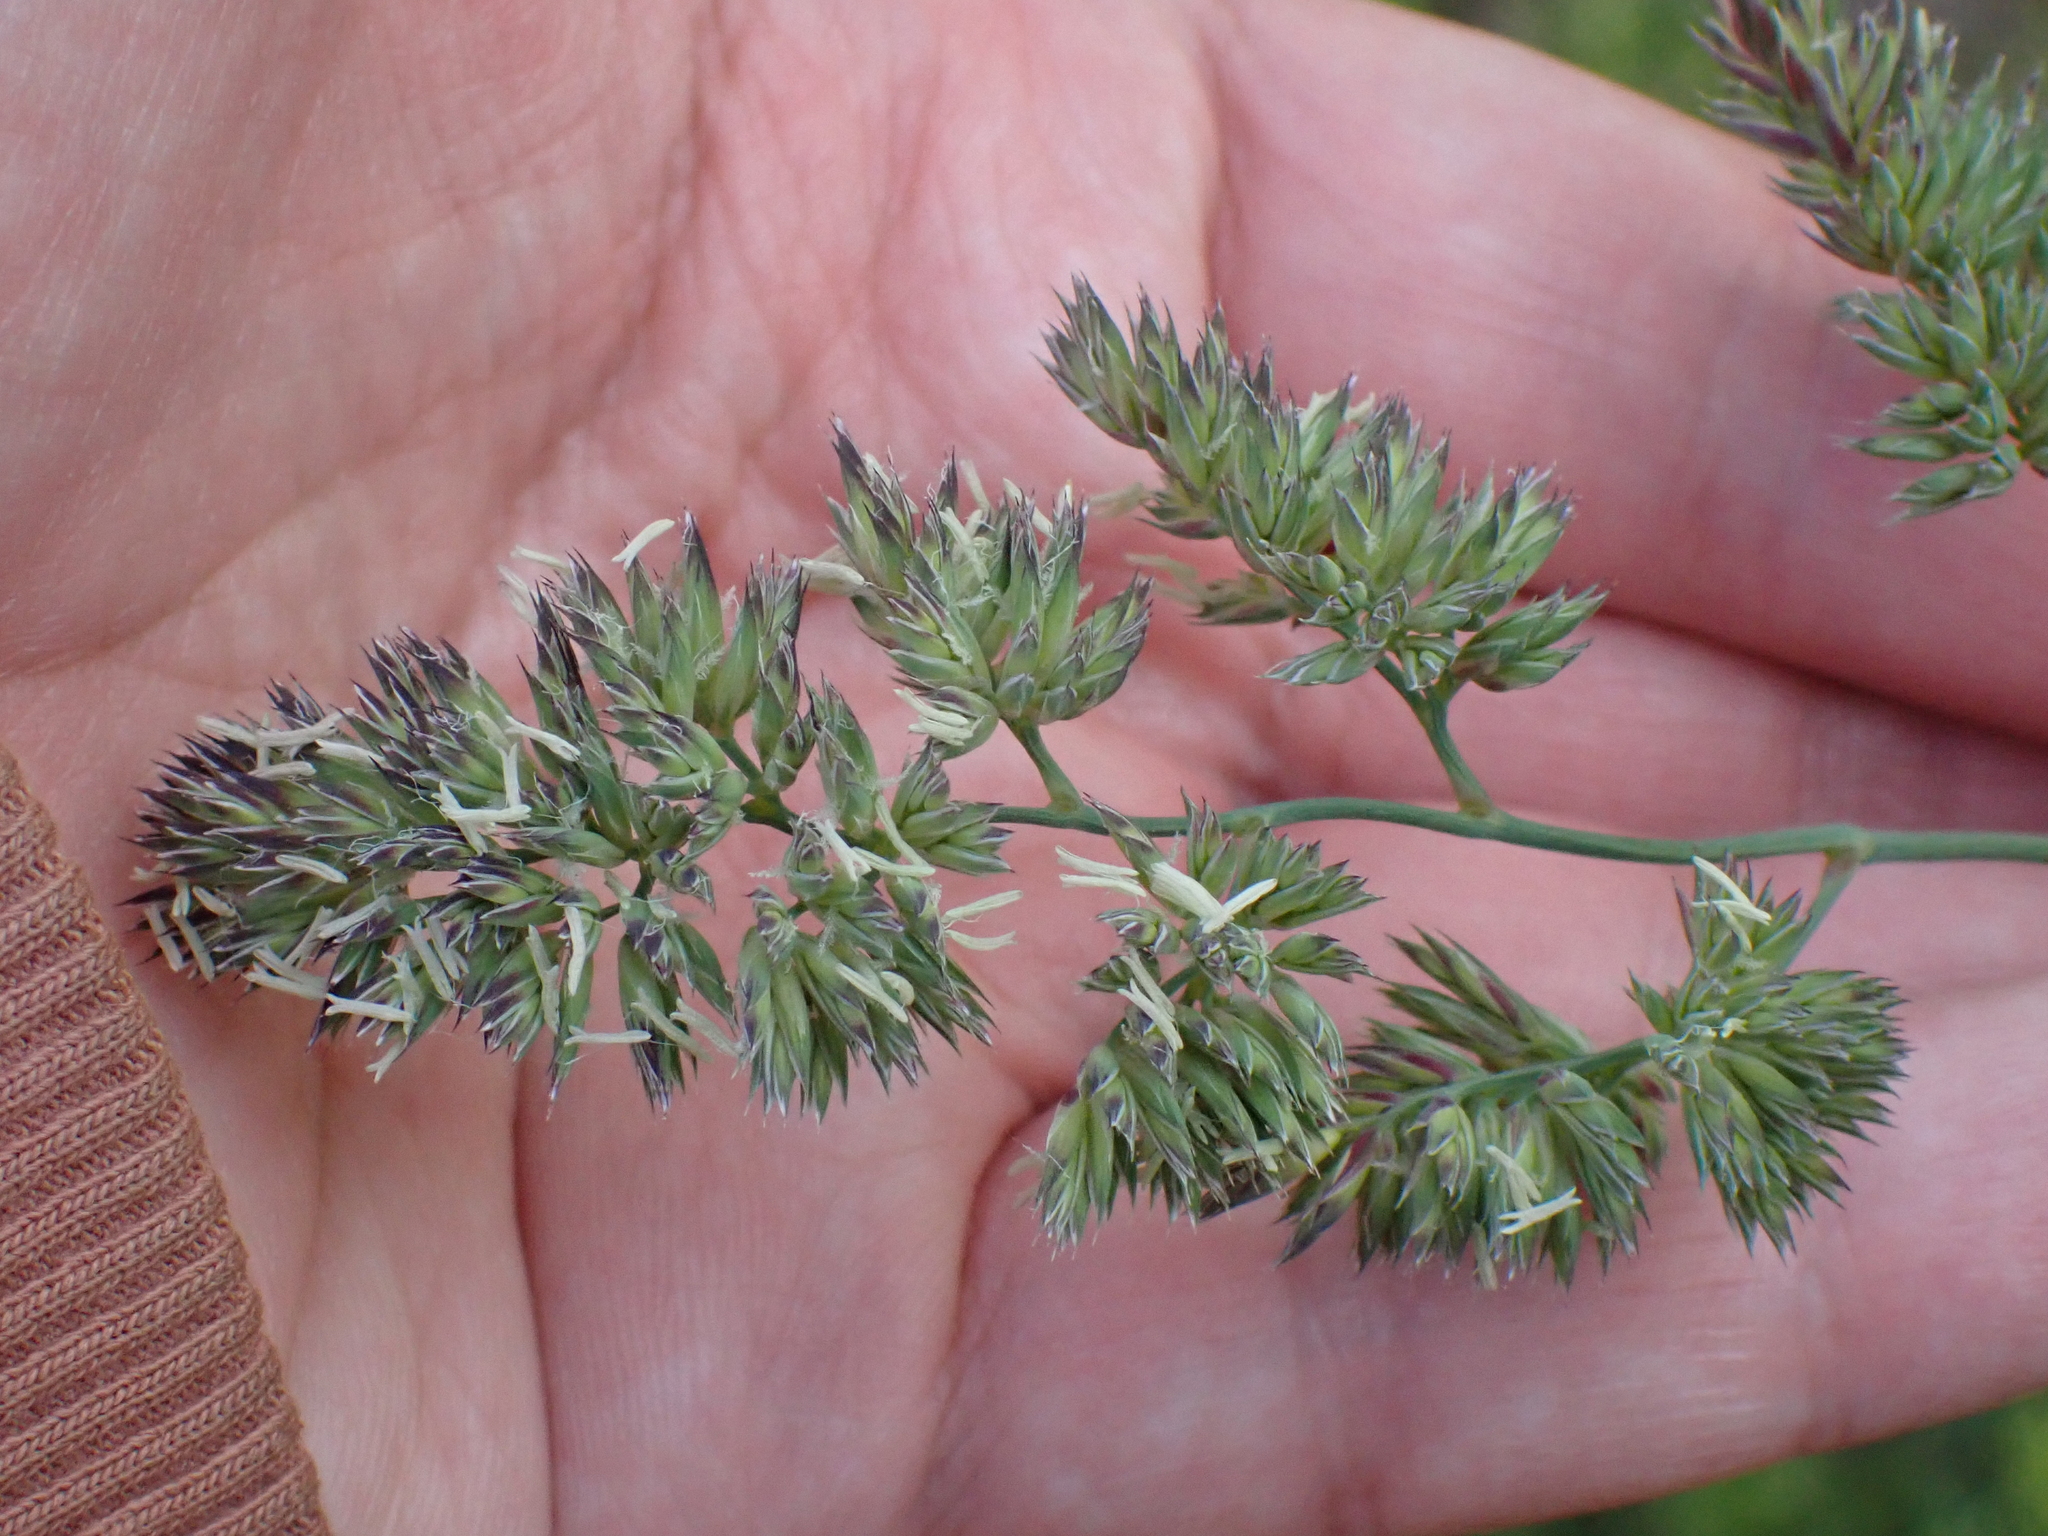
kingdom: Plantae
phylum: Tracheophyta
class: Liliopsida
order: Poales
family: Poaceae
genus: Dactylis
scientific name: Dactylis glomerata
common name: Orchardgrass
